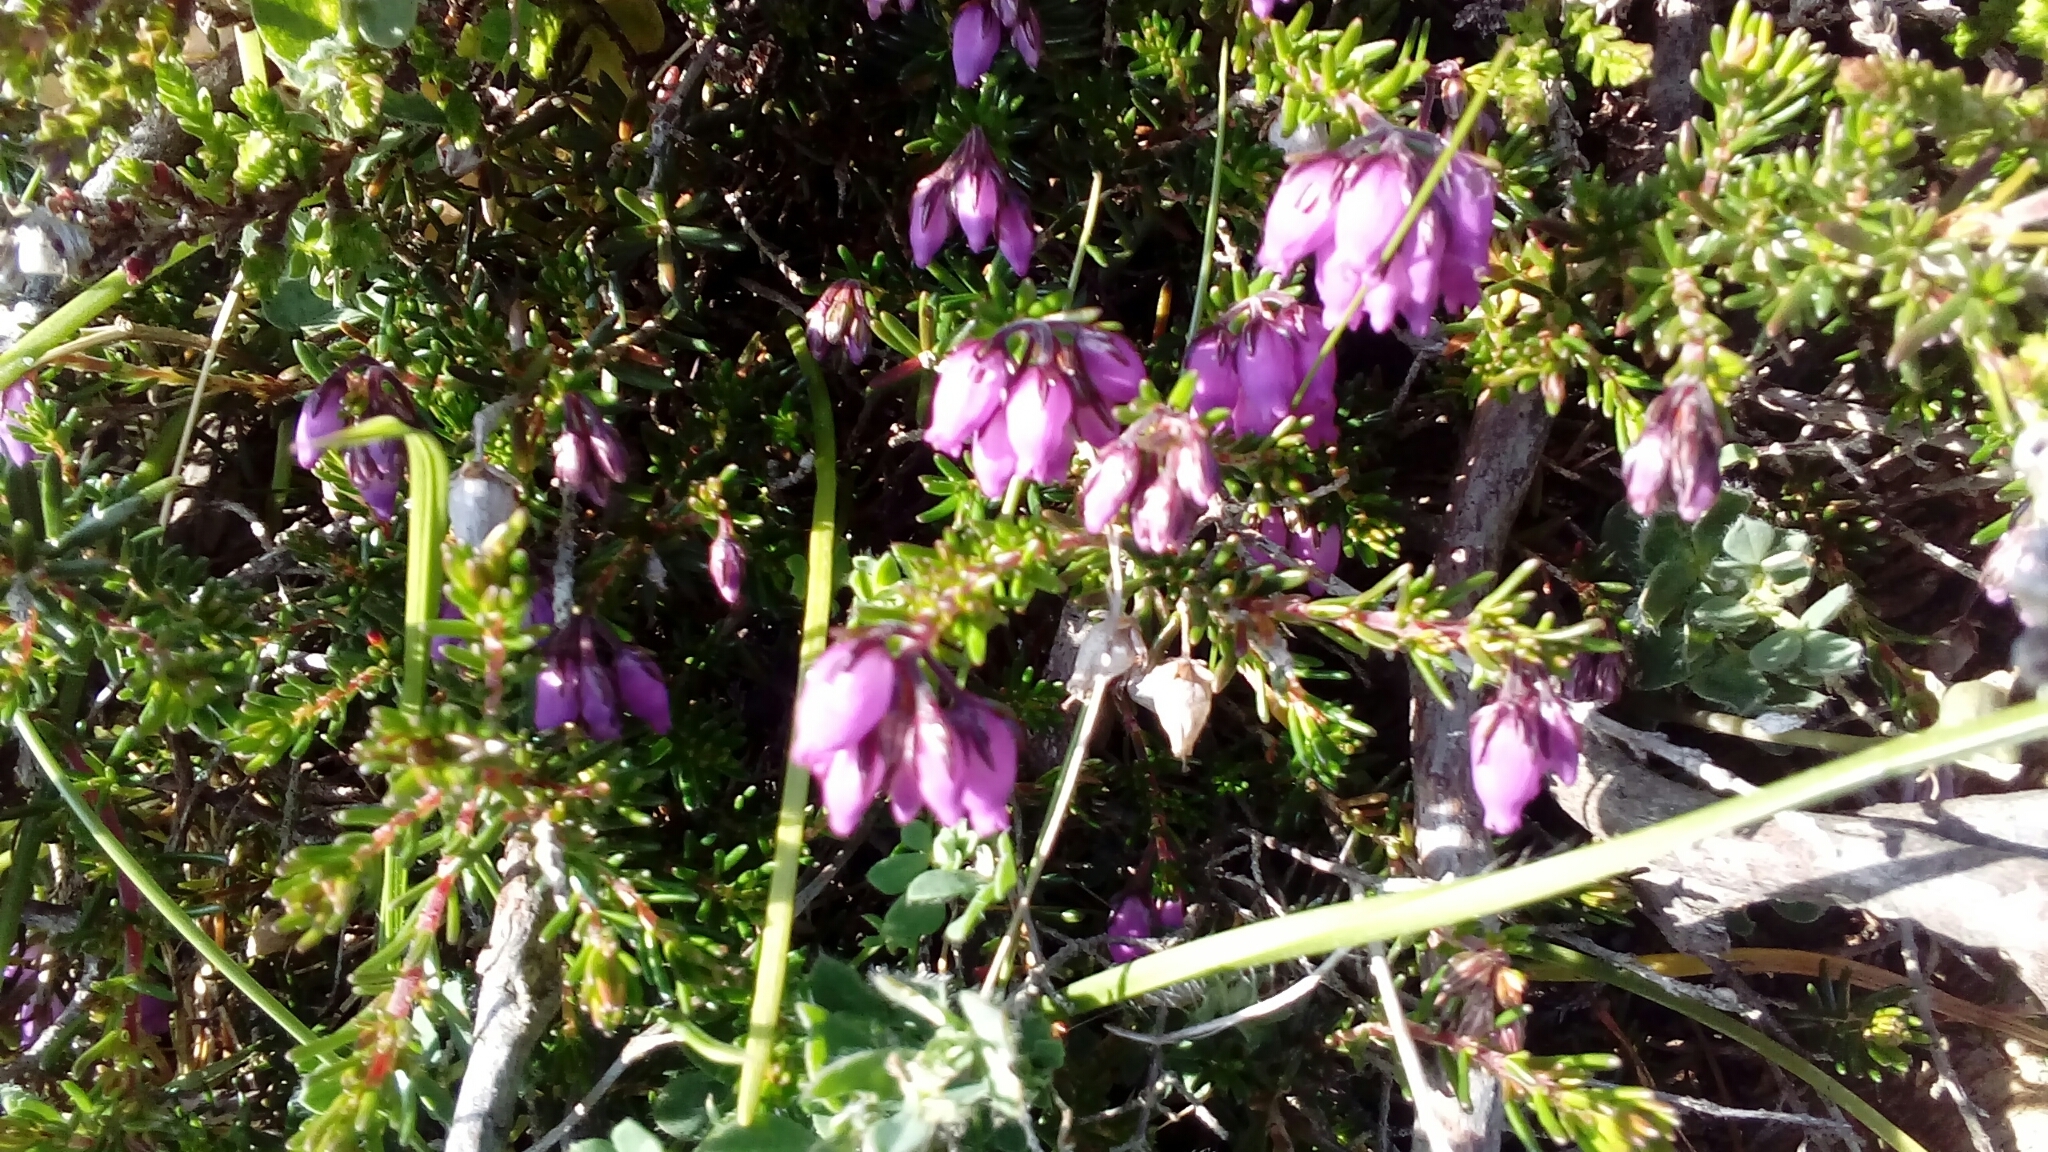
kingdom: Plantae
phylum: Tracheophyta
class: Magnoliopsida
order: Ericales
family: Ericaceae
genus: Erica
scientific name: Erica cinerea
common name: Bell heather
